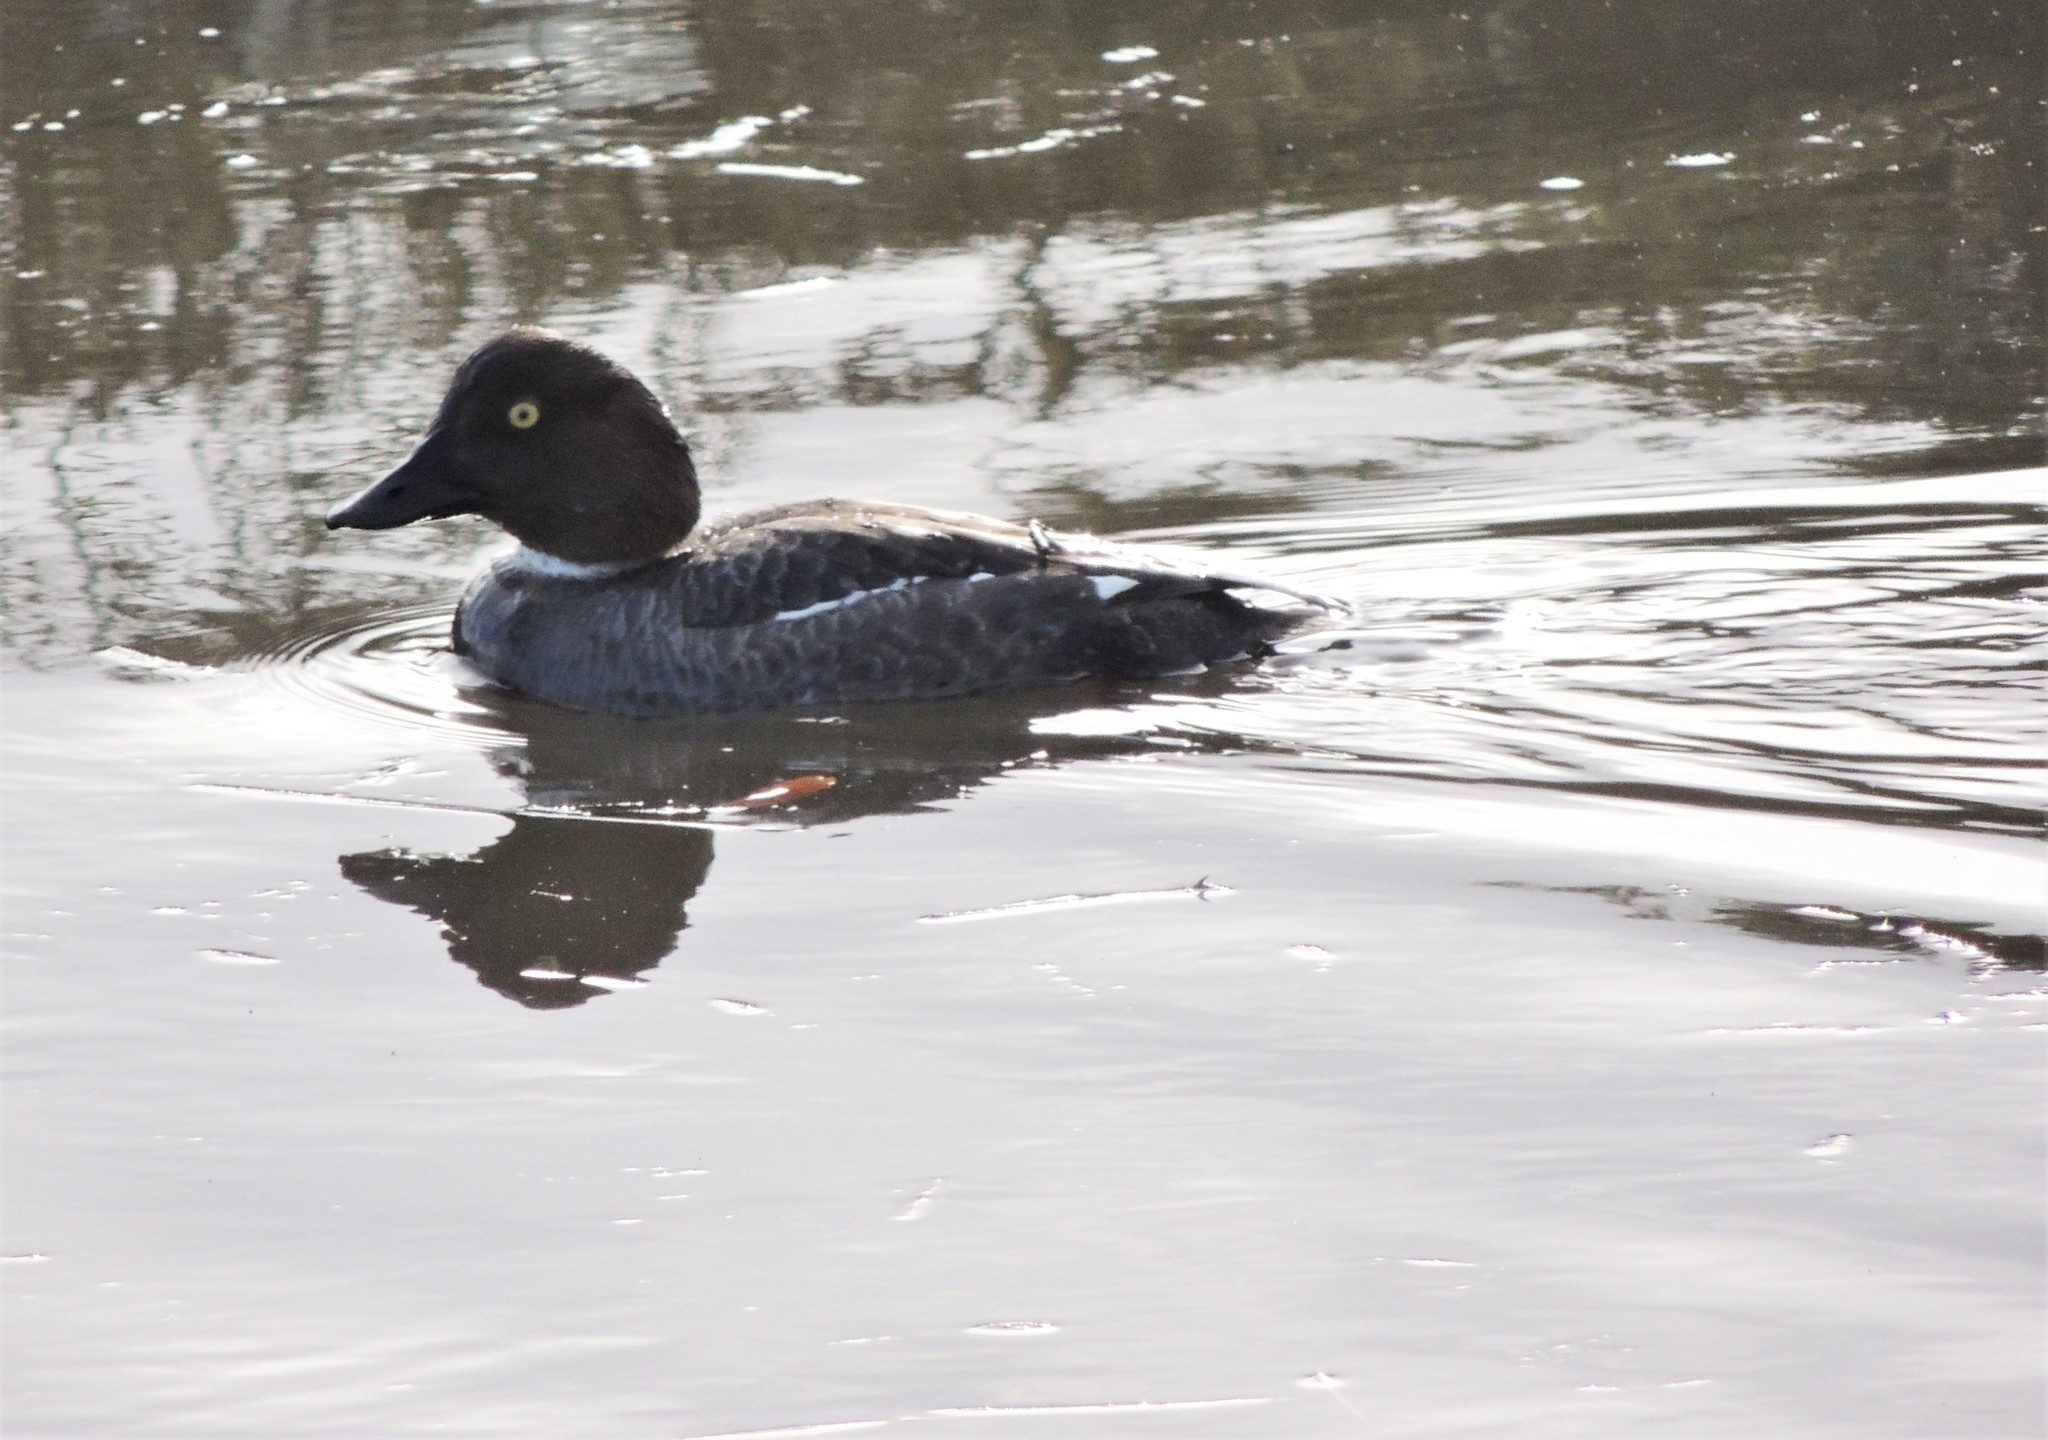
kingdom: Animalia
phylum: Chordata
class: Aves
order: Anseriformes
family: Anatidae
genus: Bucephala
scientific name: Bucephala clangula
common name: Common goldeneye
